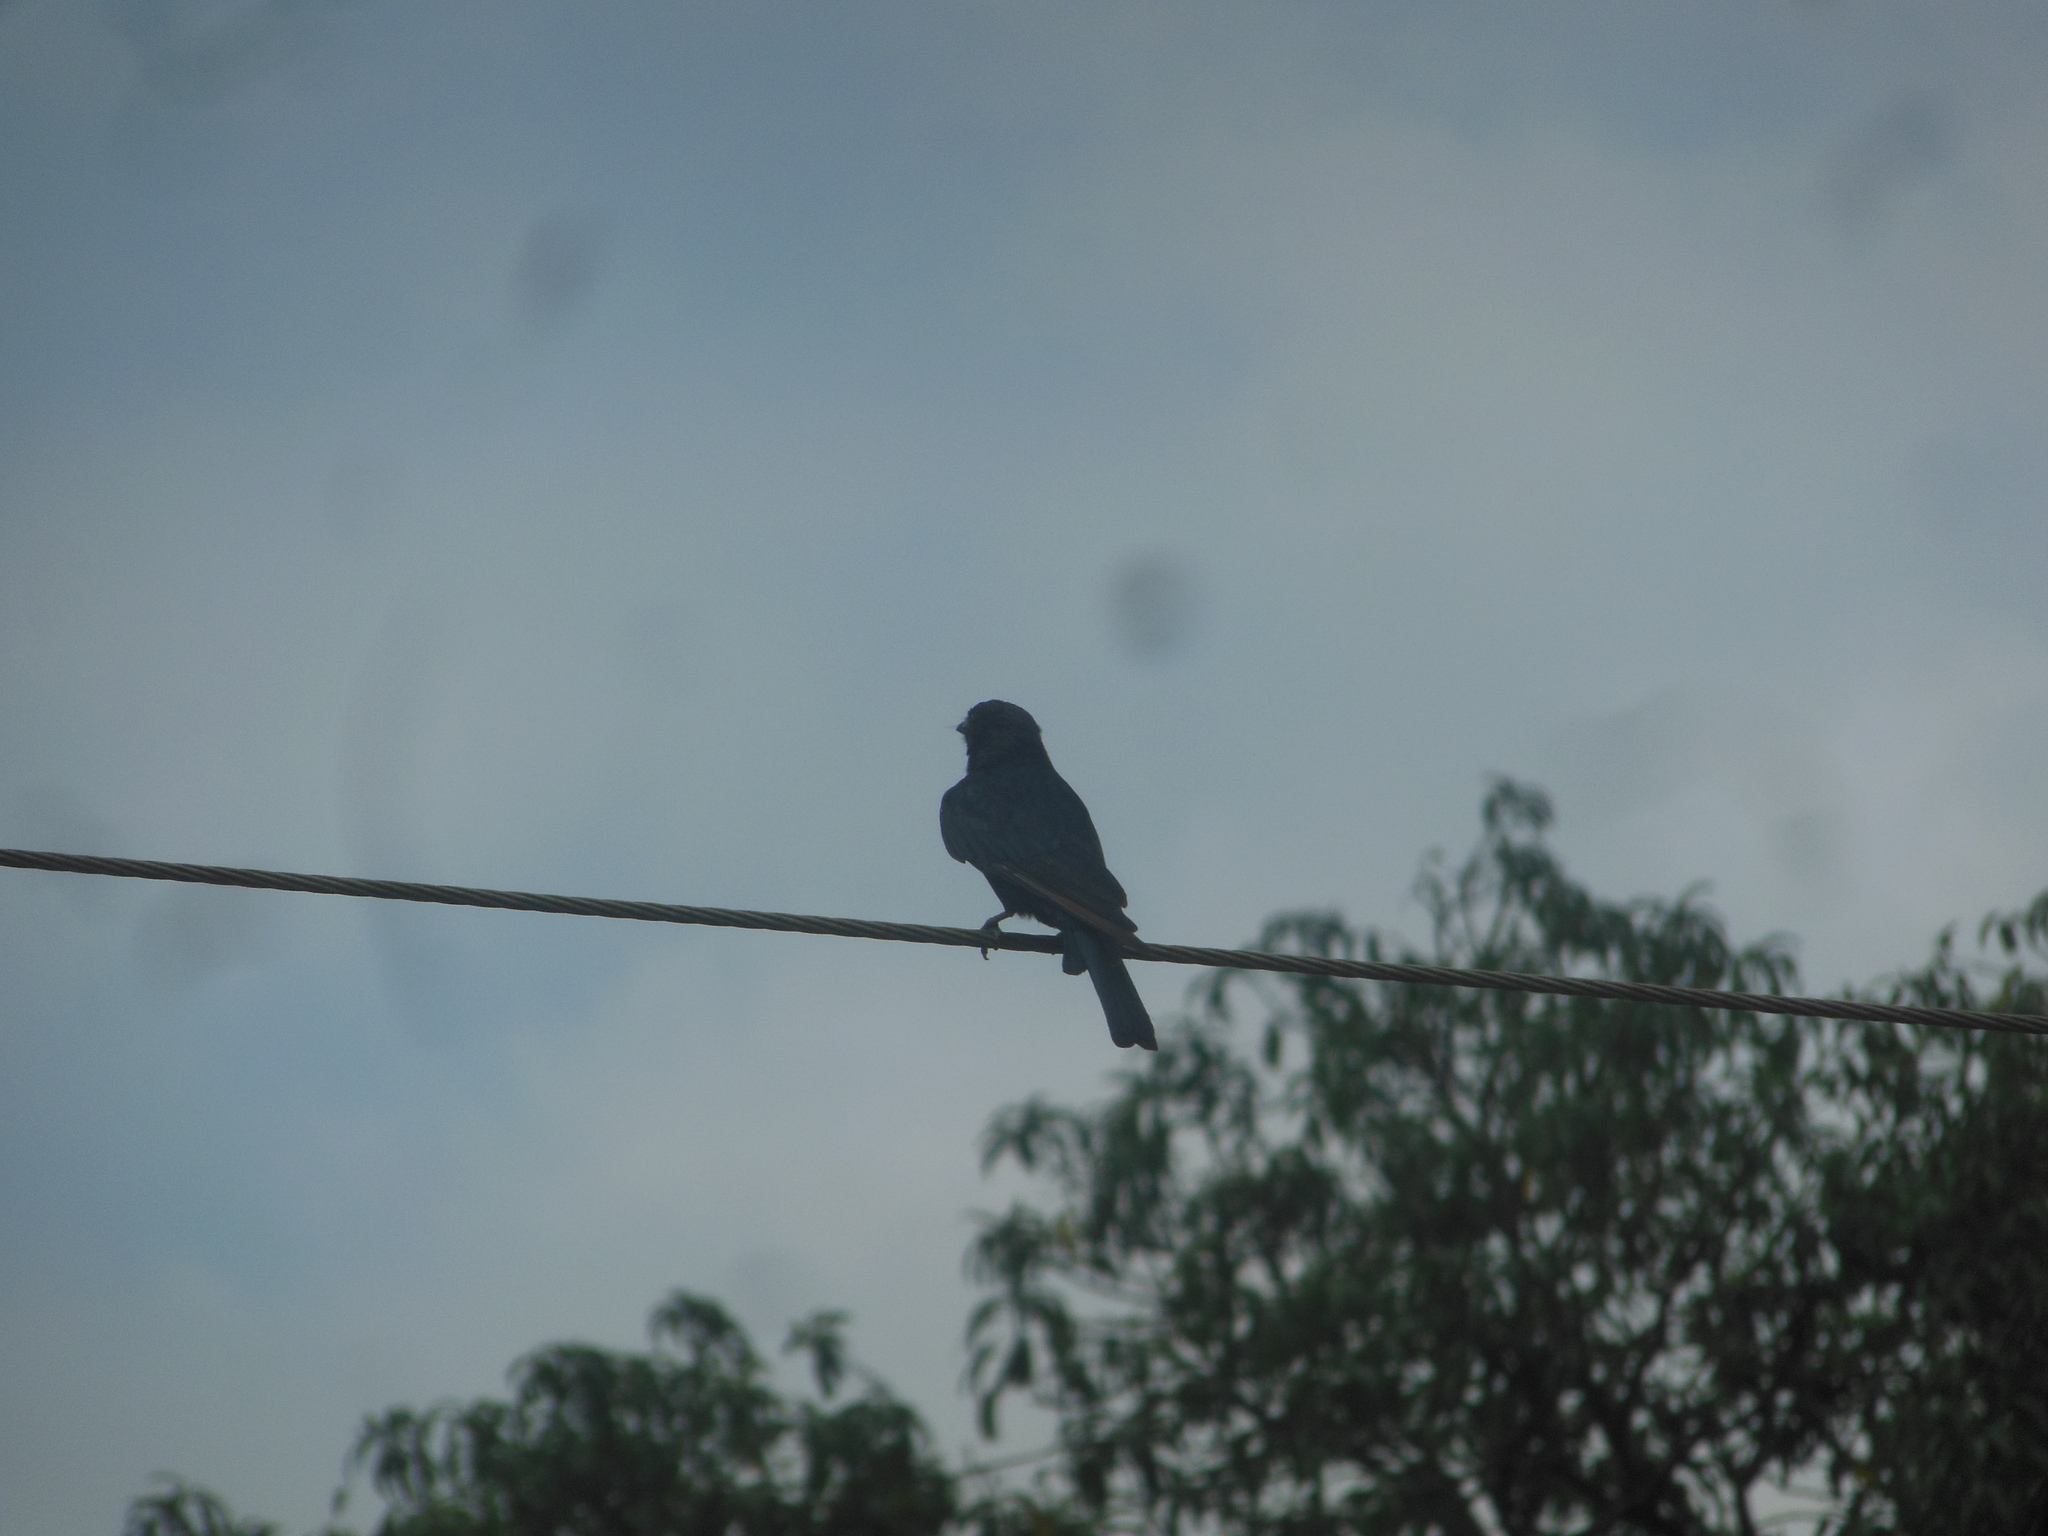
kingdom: Animalia
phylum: Chordata
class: Aves
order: Passeriformes
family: Dicruridae
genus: Dicrurus
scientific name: Dicrurus macrocercus
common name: Black drongo
